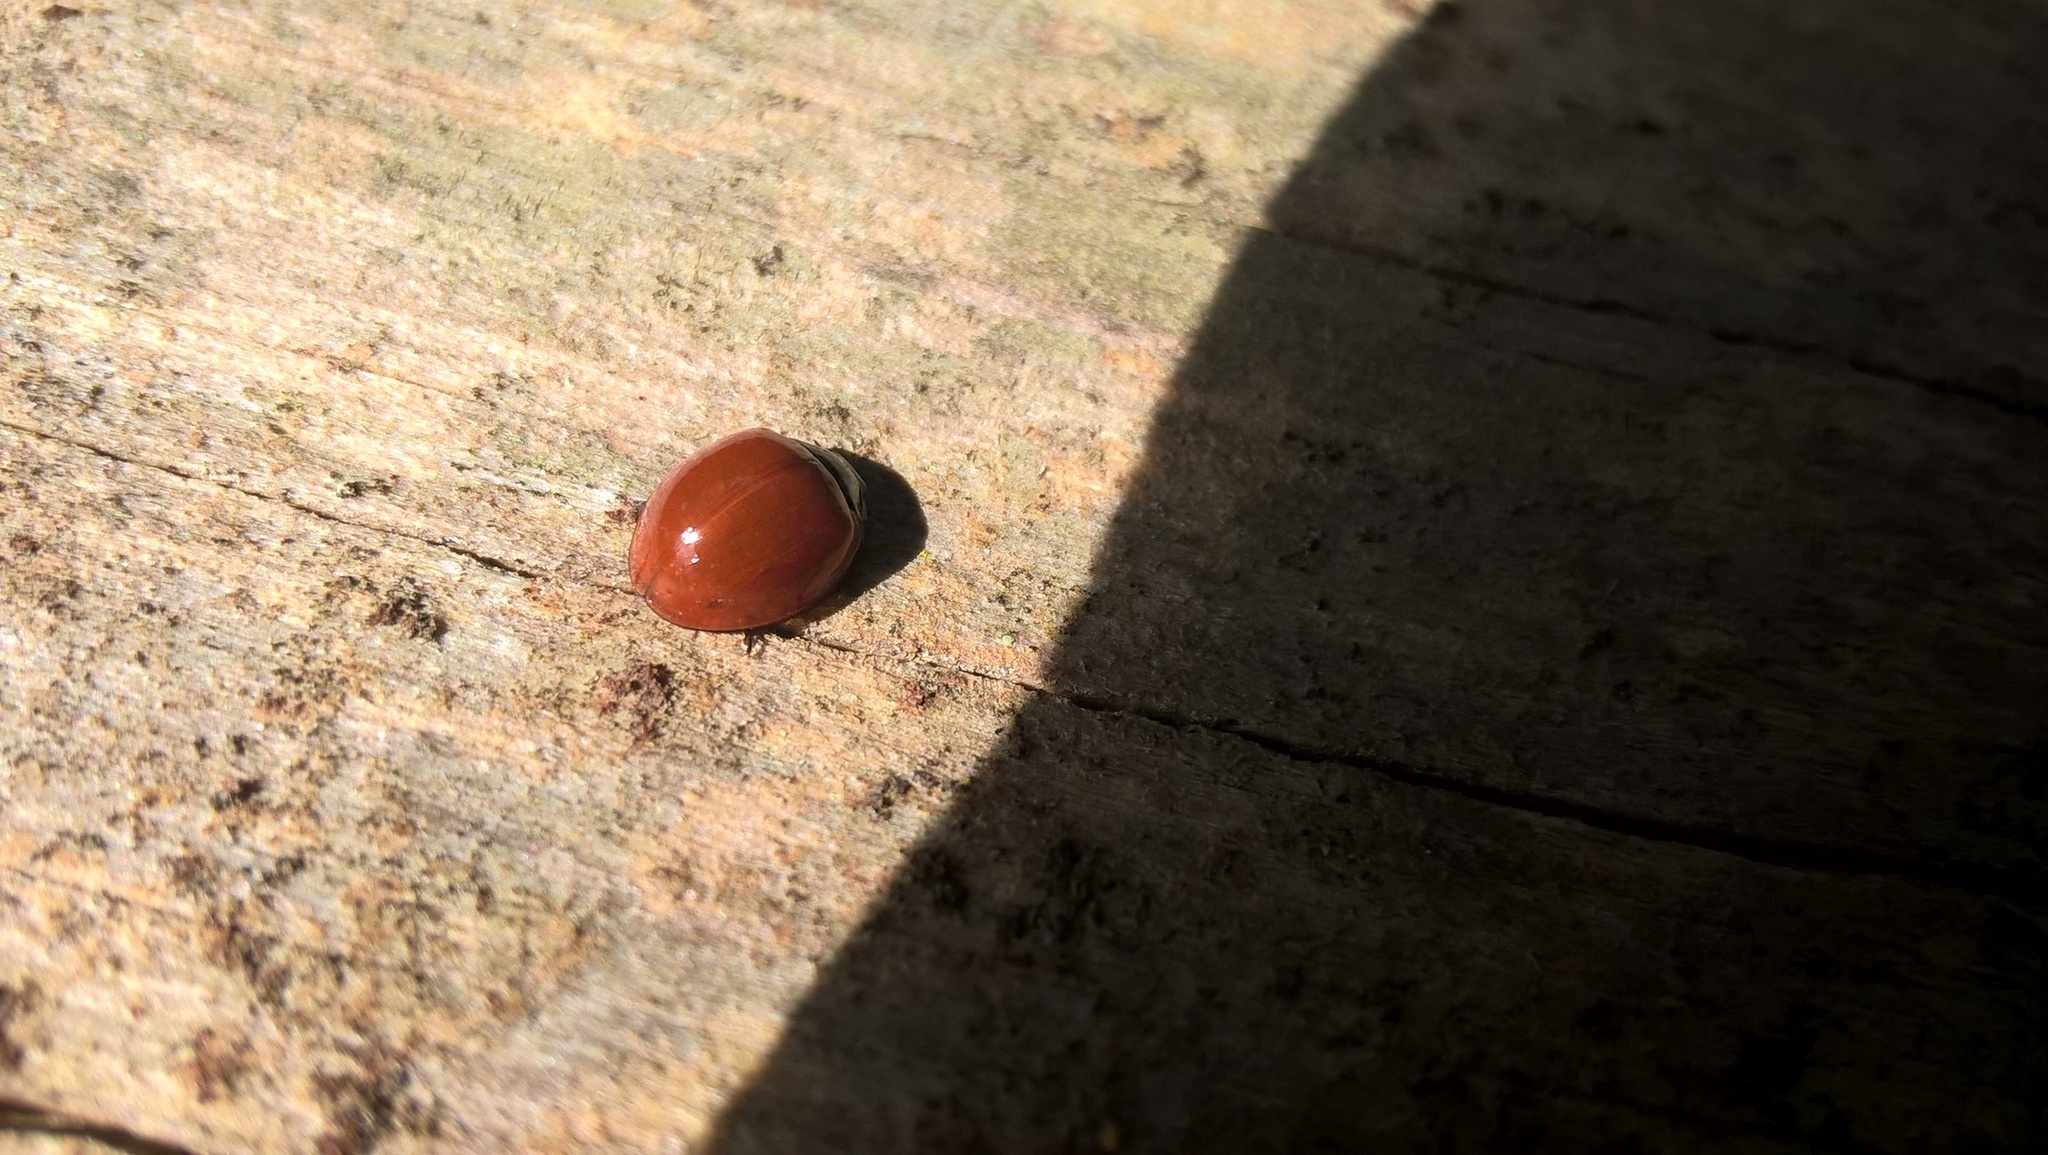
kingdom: Animalia
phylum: Arthropoda
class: Insecta
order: Coleoptera
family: Coccinellidae
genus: Cycloneda
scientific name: Cycloneda sanguinea
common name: Ladybird beetle
